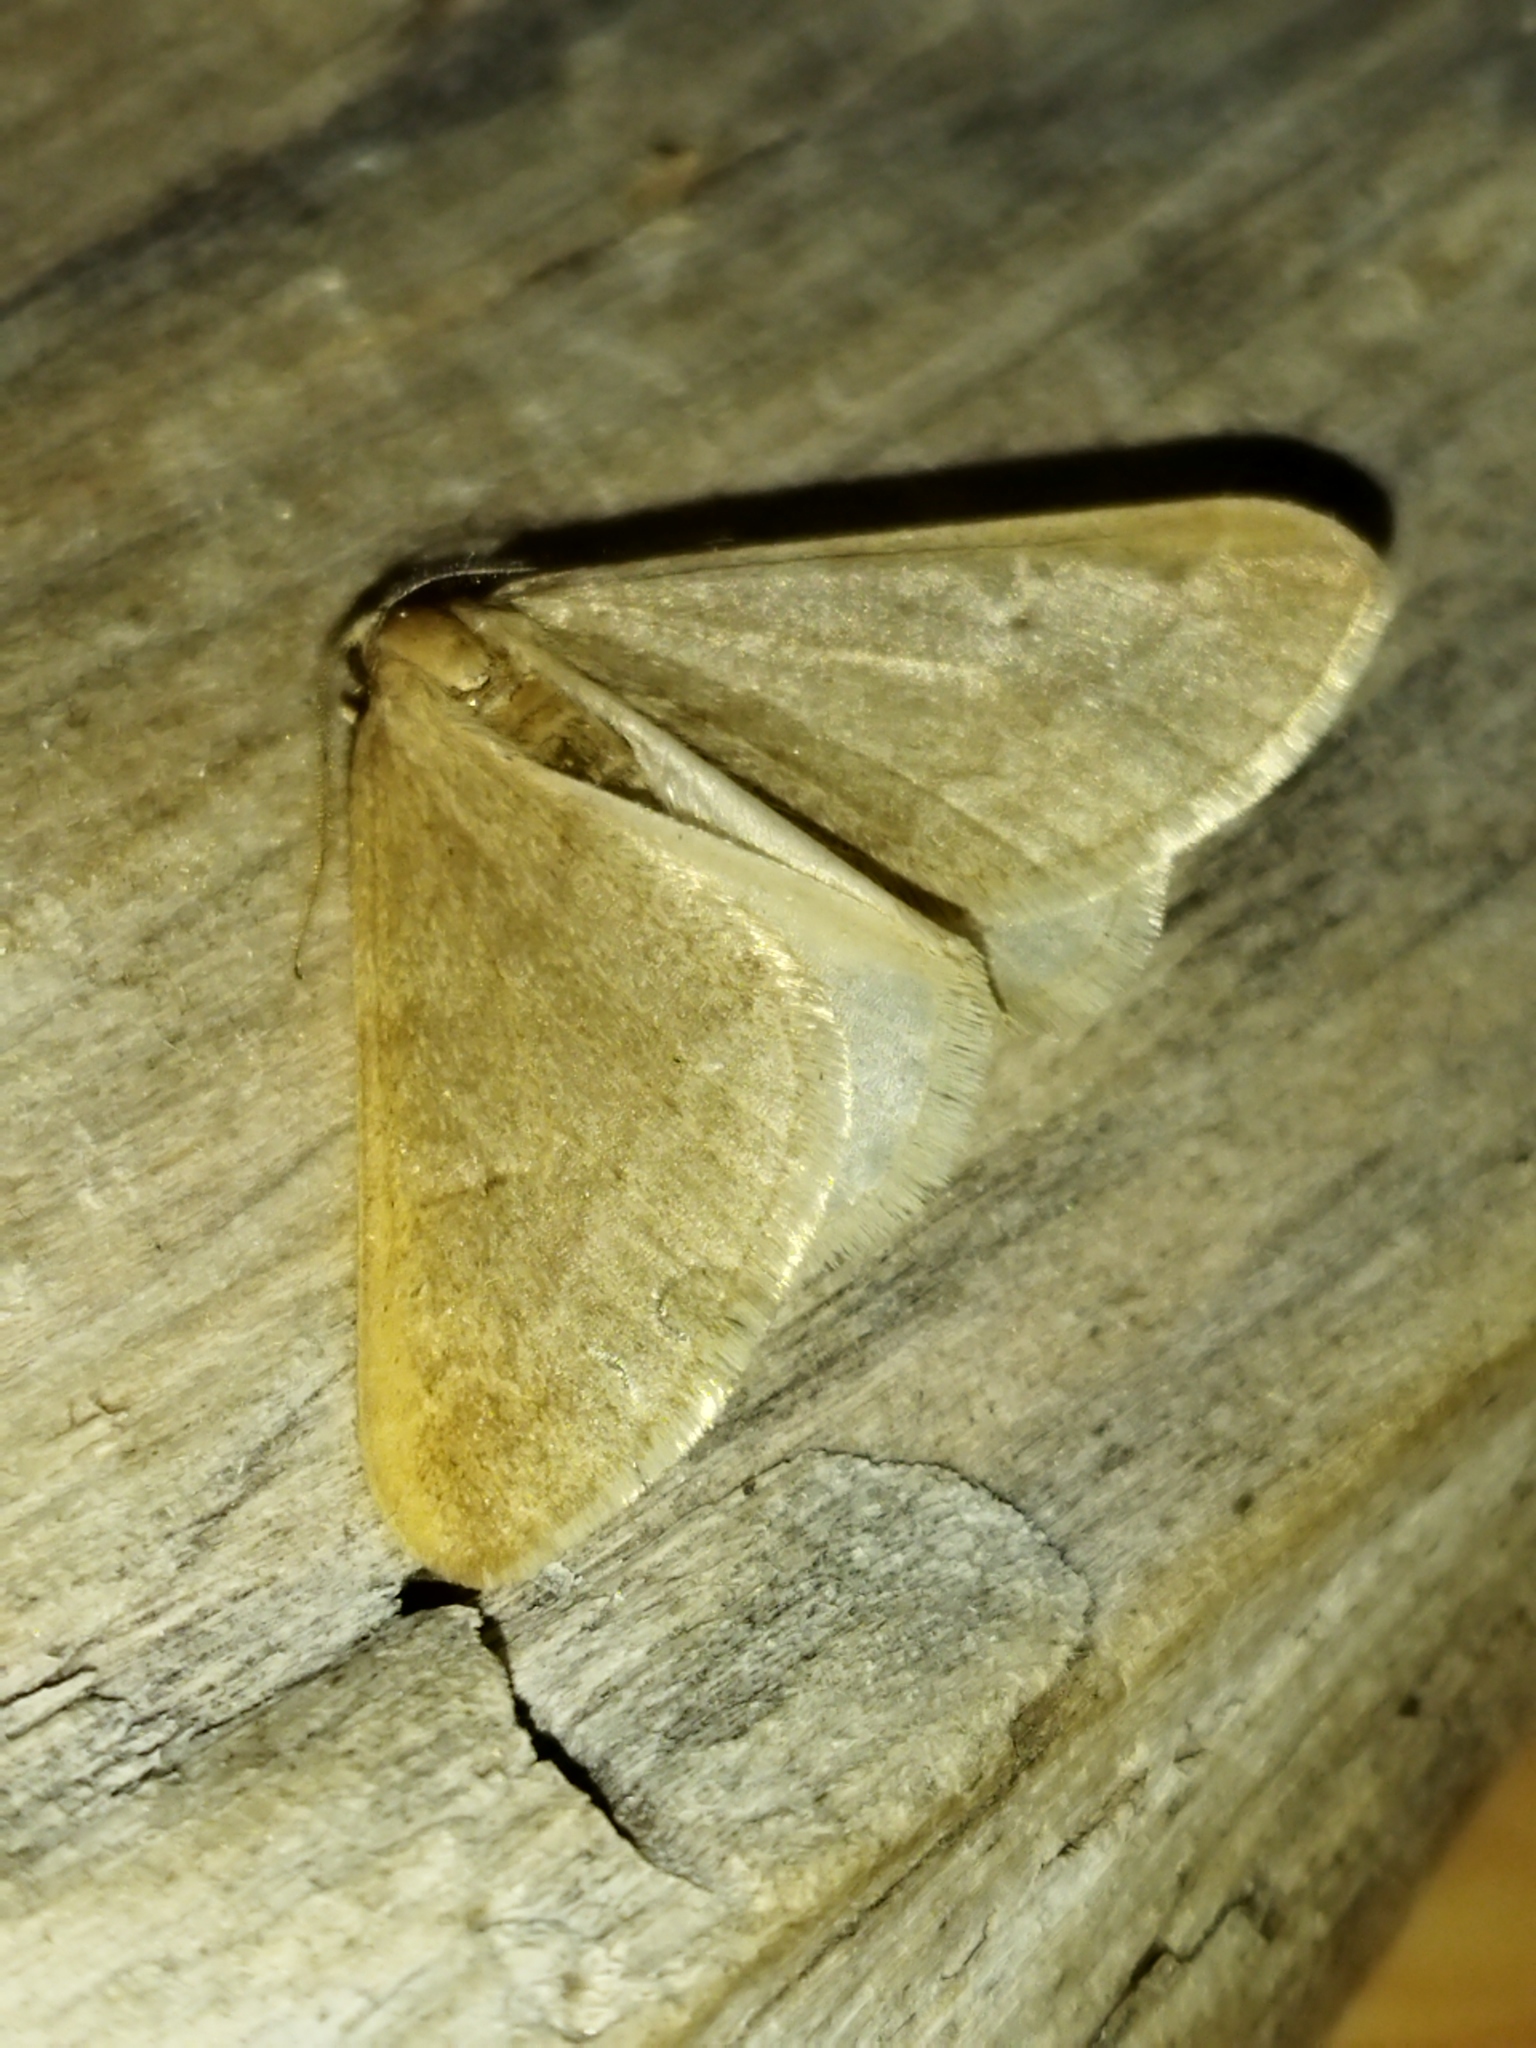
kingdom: Animalia
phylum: Arthropoda
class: Insecta
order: Lepidoptera
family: Geometridae
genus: Alsophila
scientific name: Alsophila aceraria
